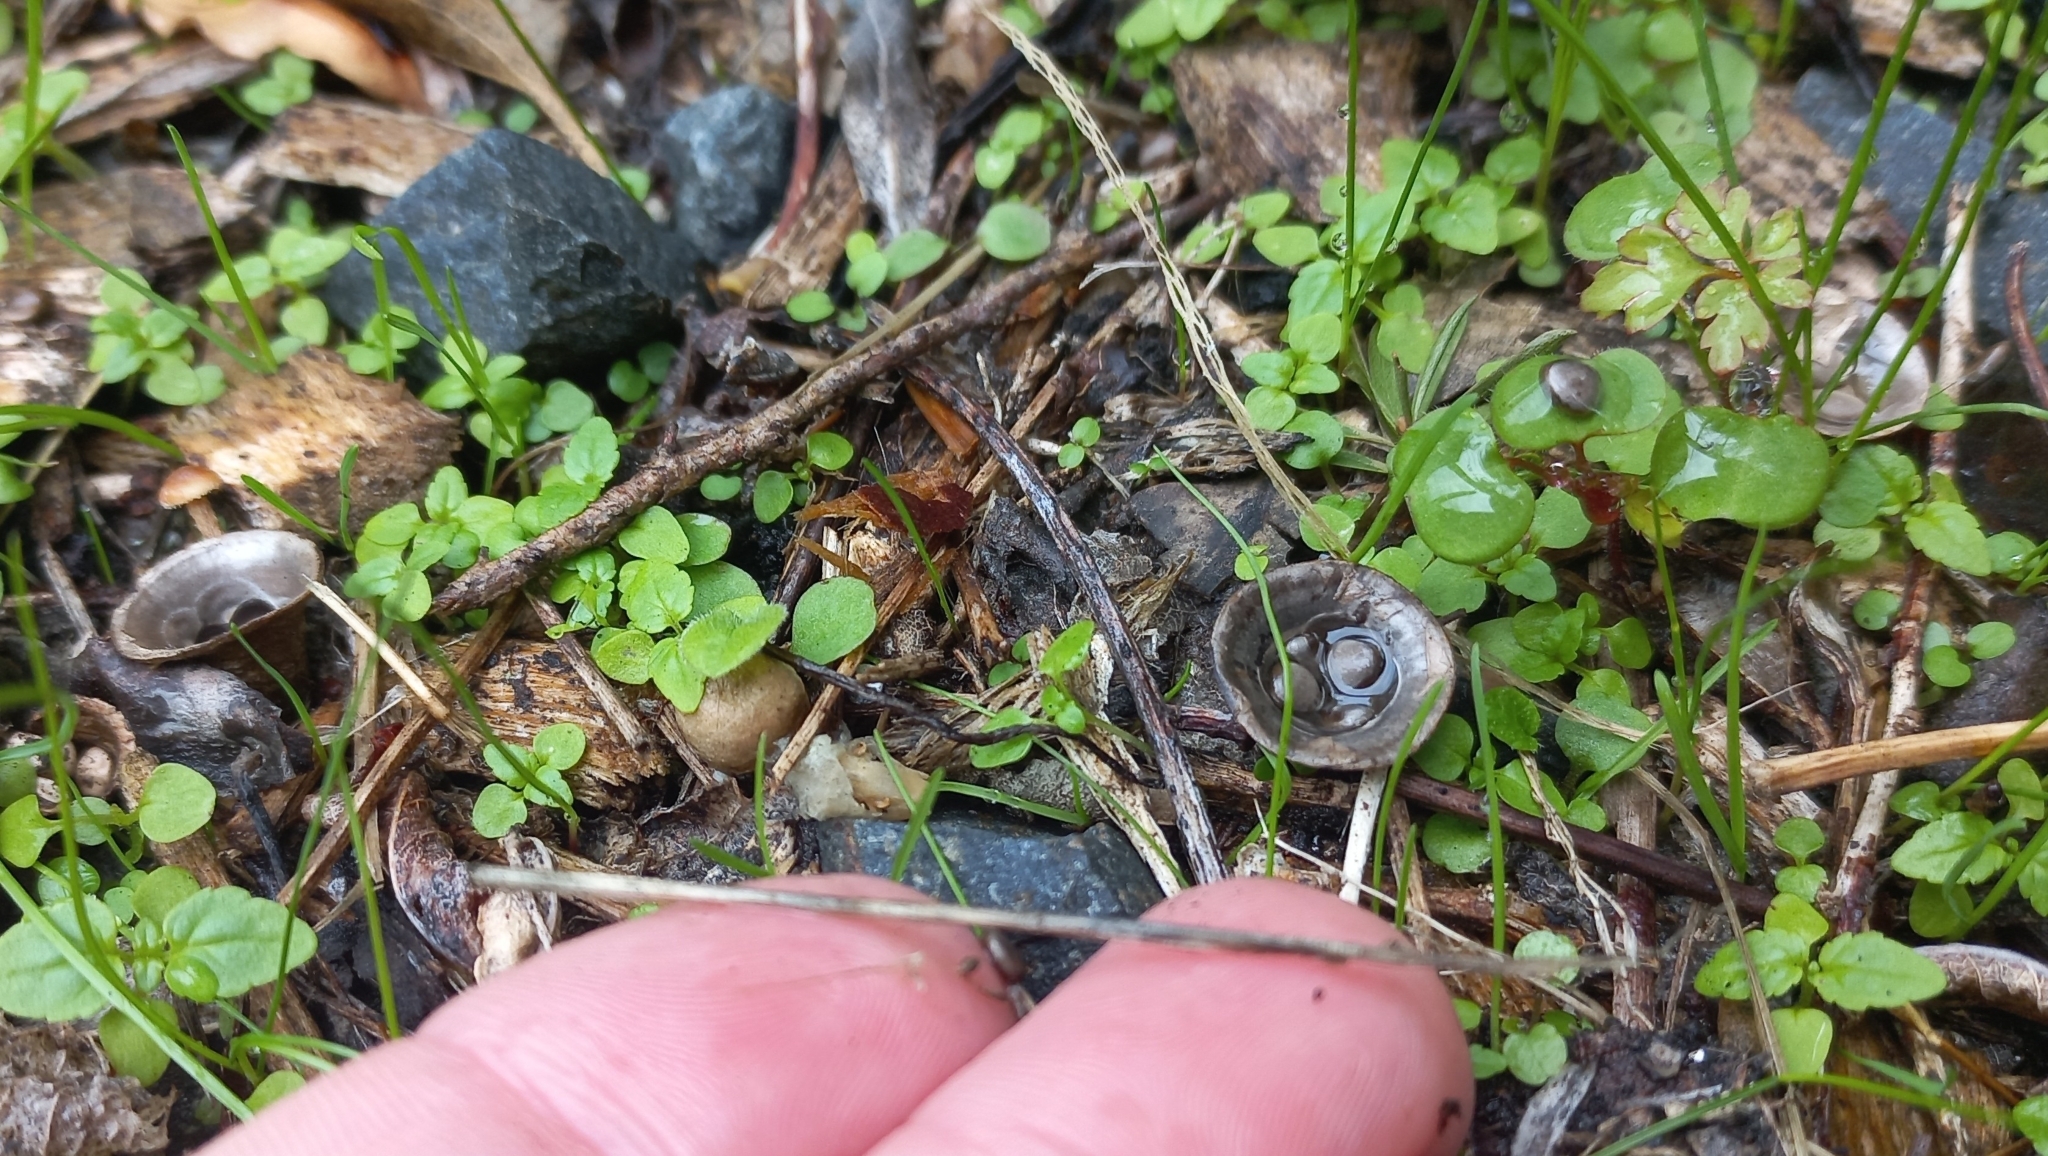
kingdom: Fungi
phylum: Basidiomycota
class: Agaricomycetes
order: Agaricales
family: Agaricaceae
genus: Cyathus
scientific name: Cyathus olla
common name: Field bird's nest
